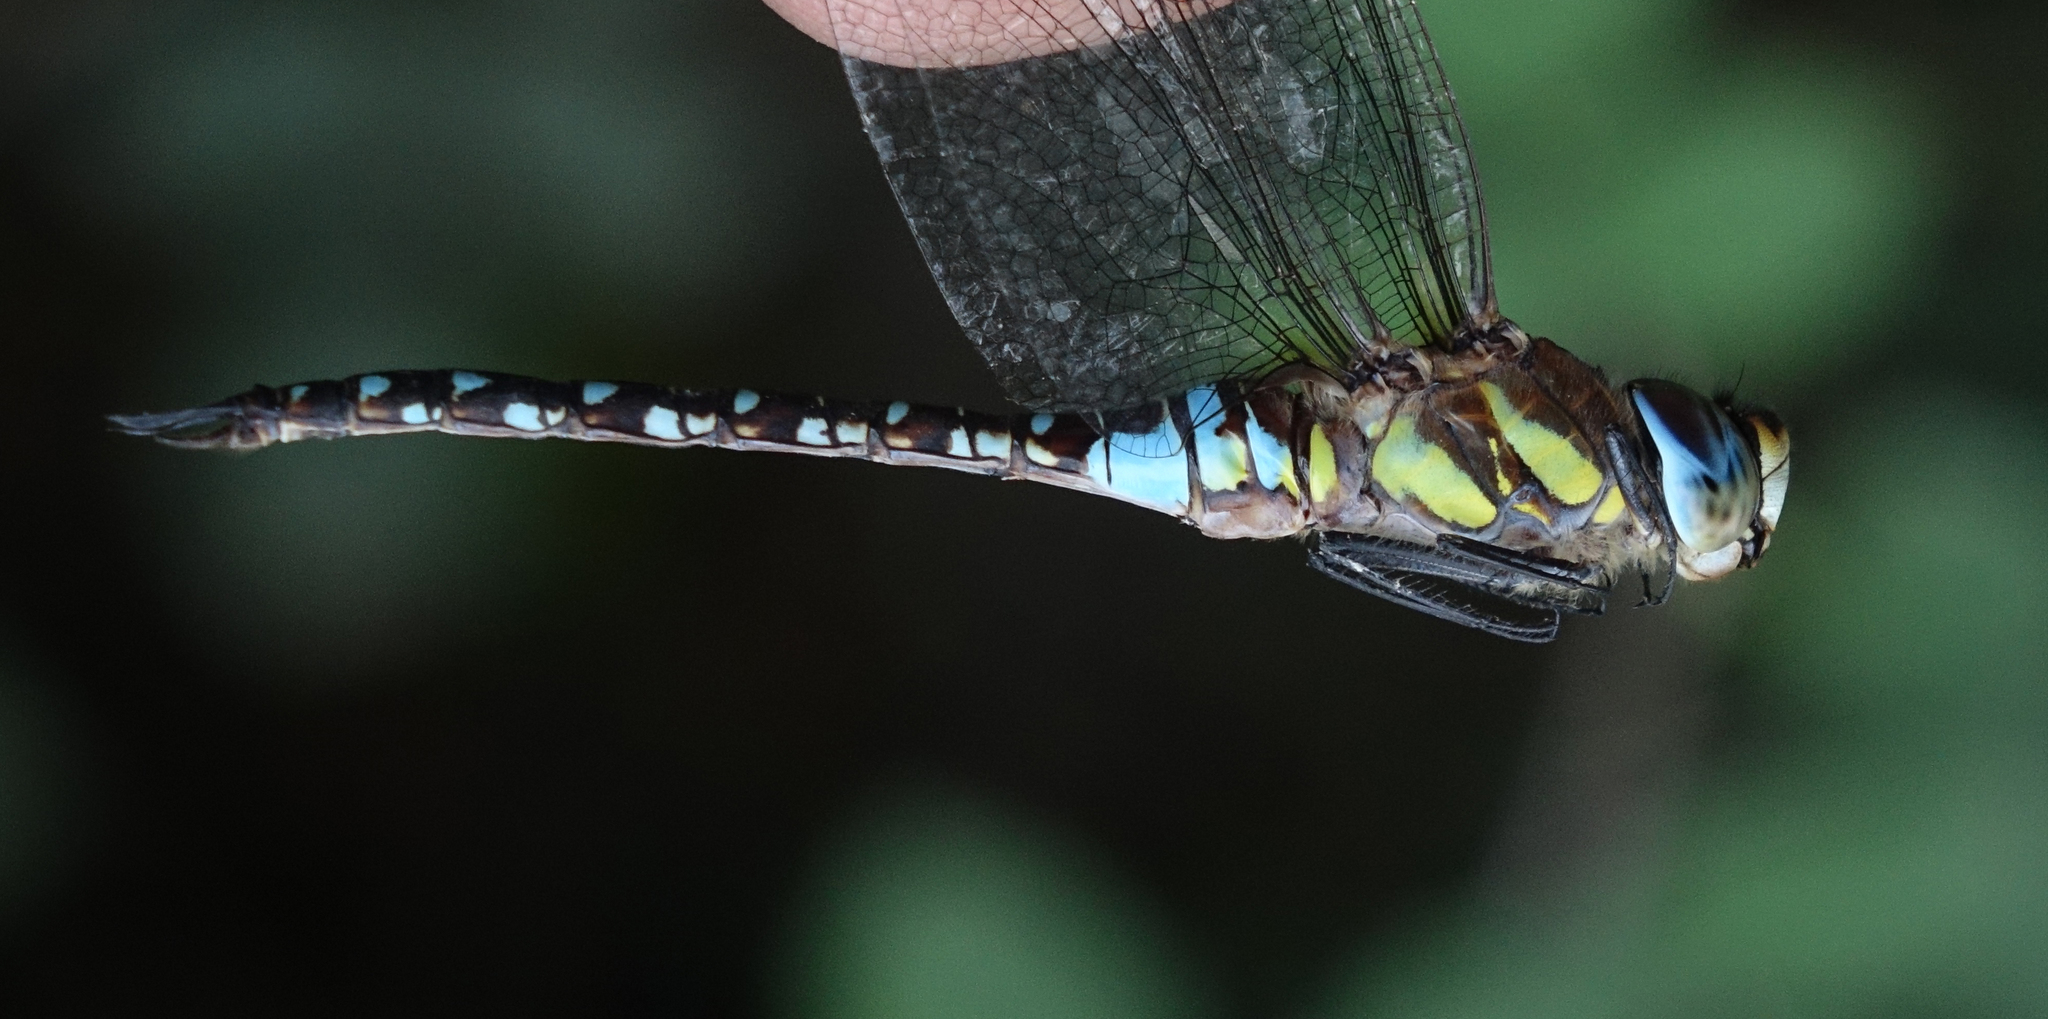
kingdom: Animalia
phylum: Arthropoda
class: Insecta
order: Odonata
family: Aeshnidae
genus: Aeshna
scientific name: Aeshna mixta
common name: Migrant hawker
